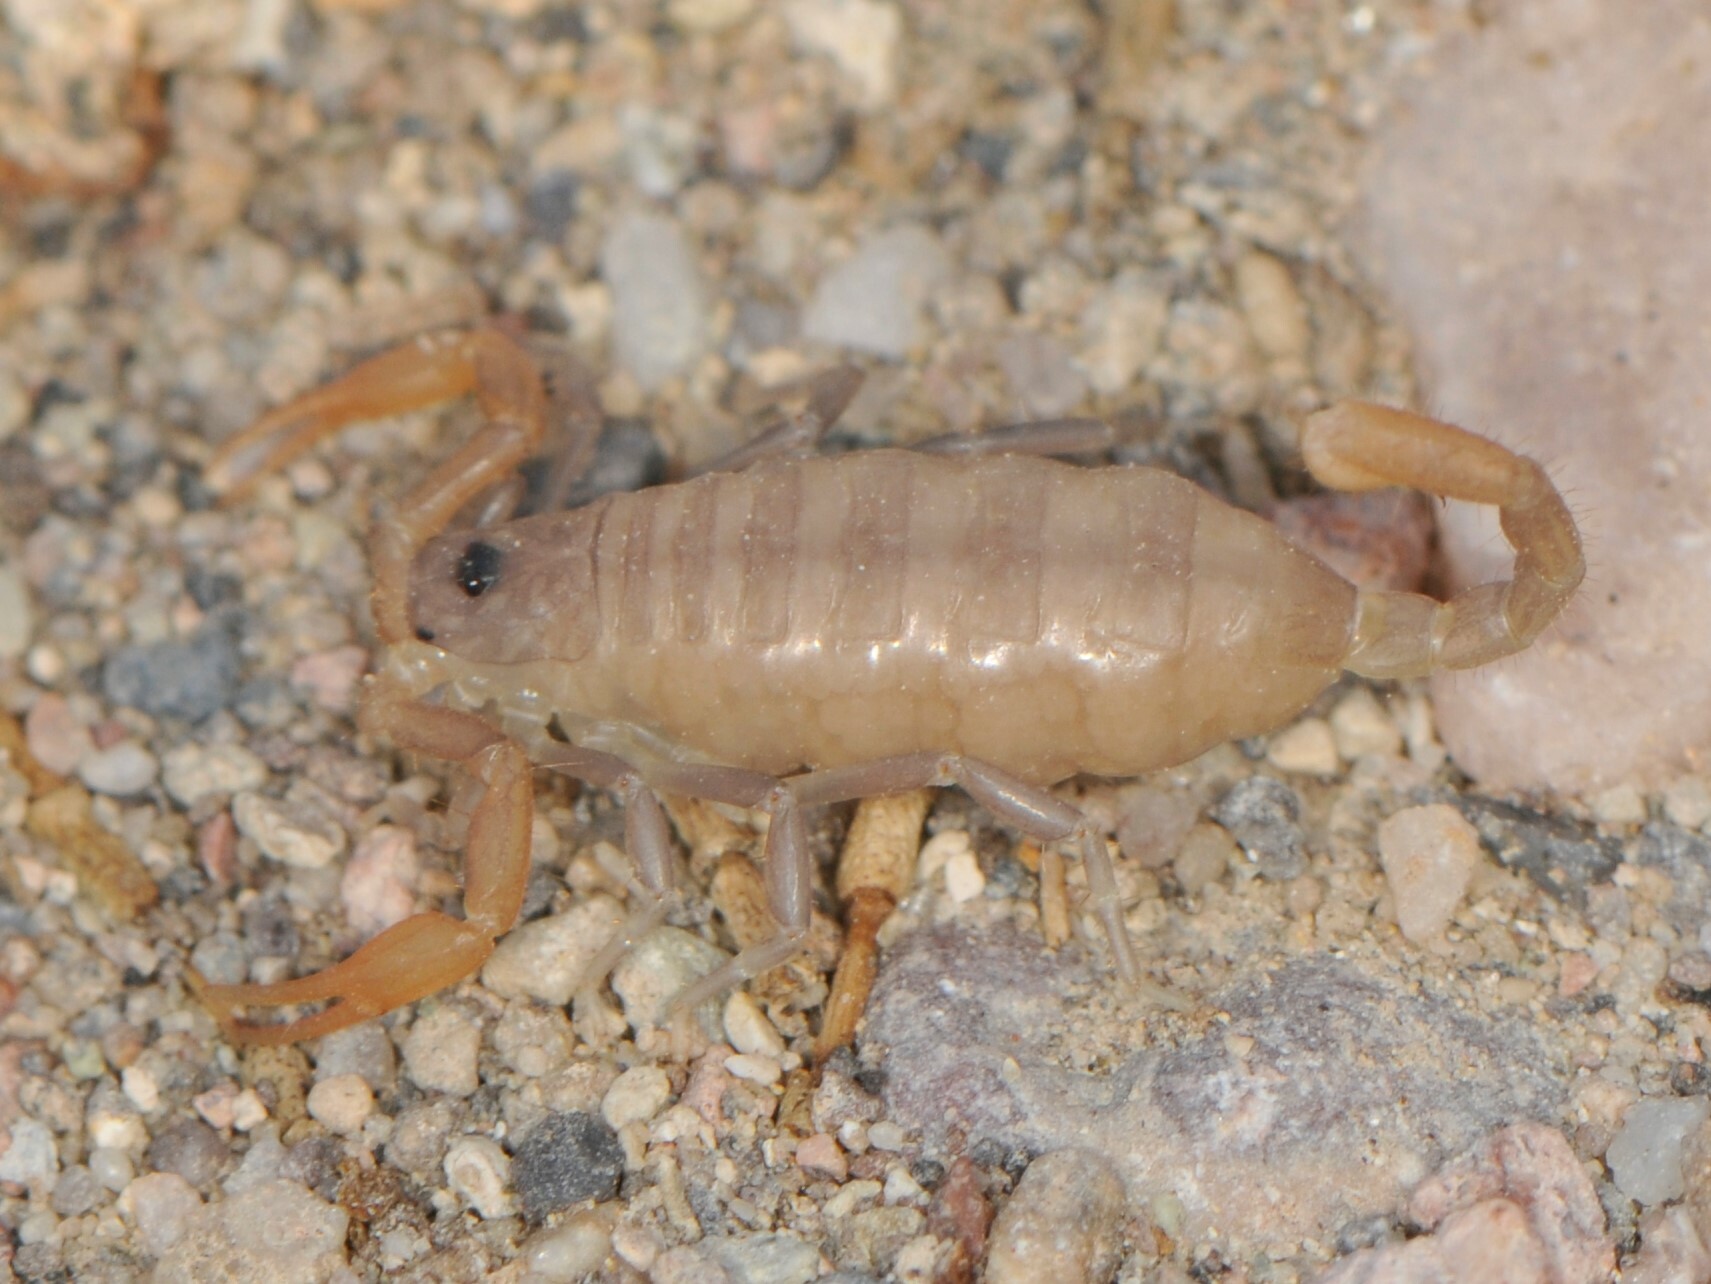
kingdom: Animalia
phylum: Arthropoda
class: Arachnida
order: Scorpiones
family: Vaejovidae
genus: Smeringurus
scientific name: Smeringurus vachoni
